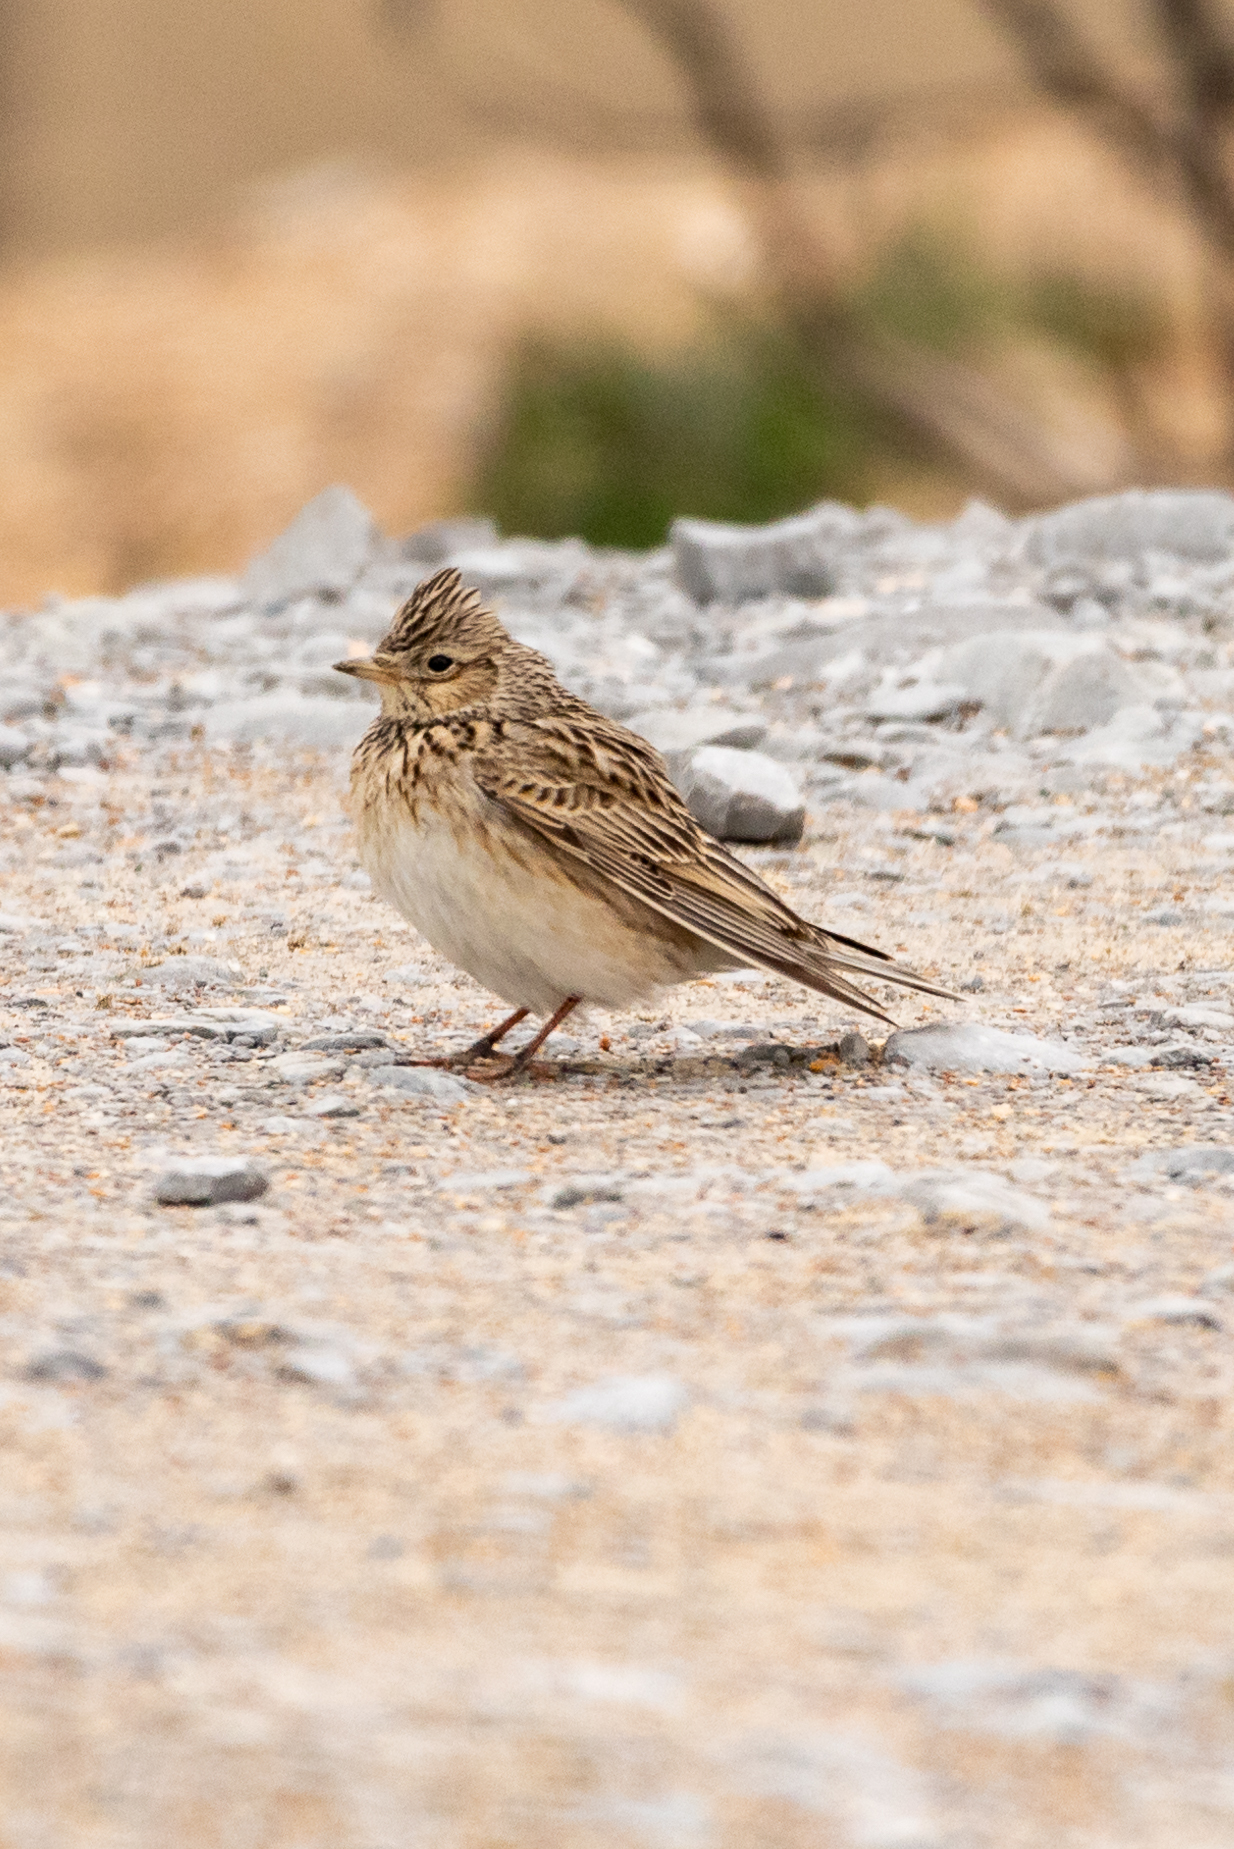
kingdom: Animalia
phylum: Chordata
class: Aves
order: Passeriformes
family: Alaudidae
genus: Alauda
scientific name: Alauda arvensis
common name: Eurasian skylark
